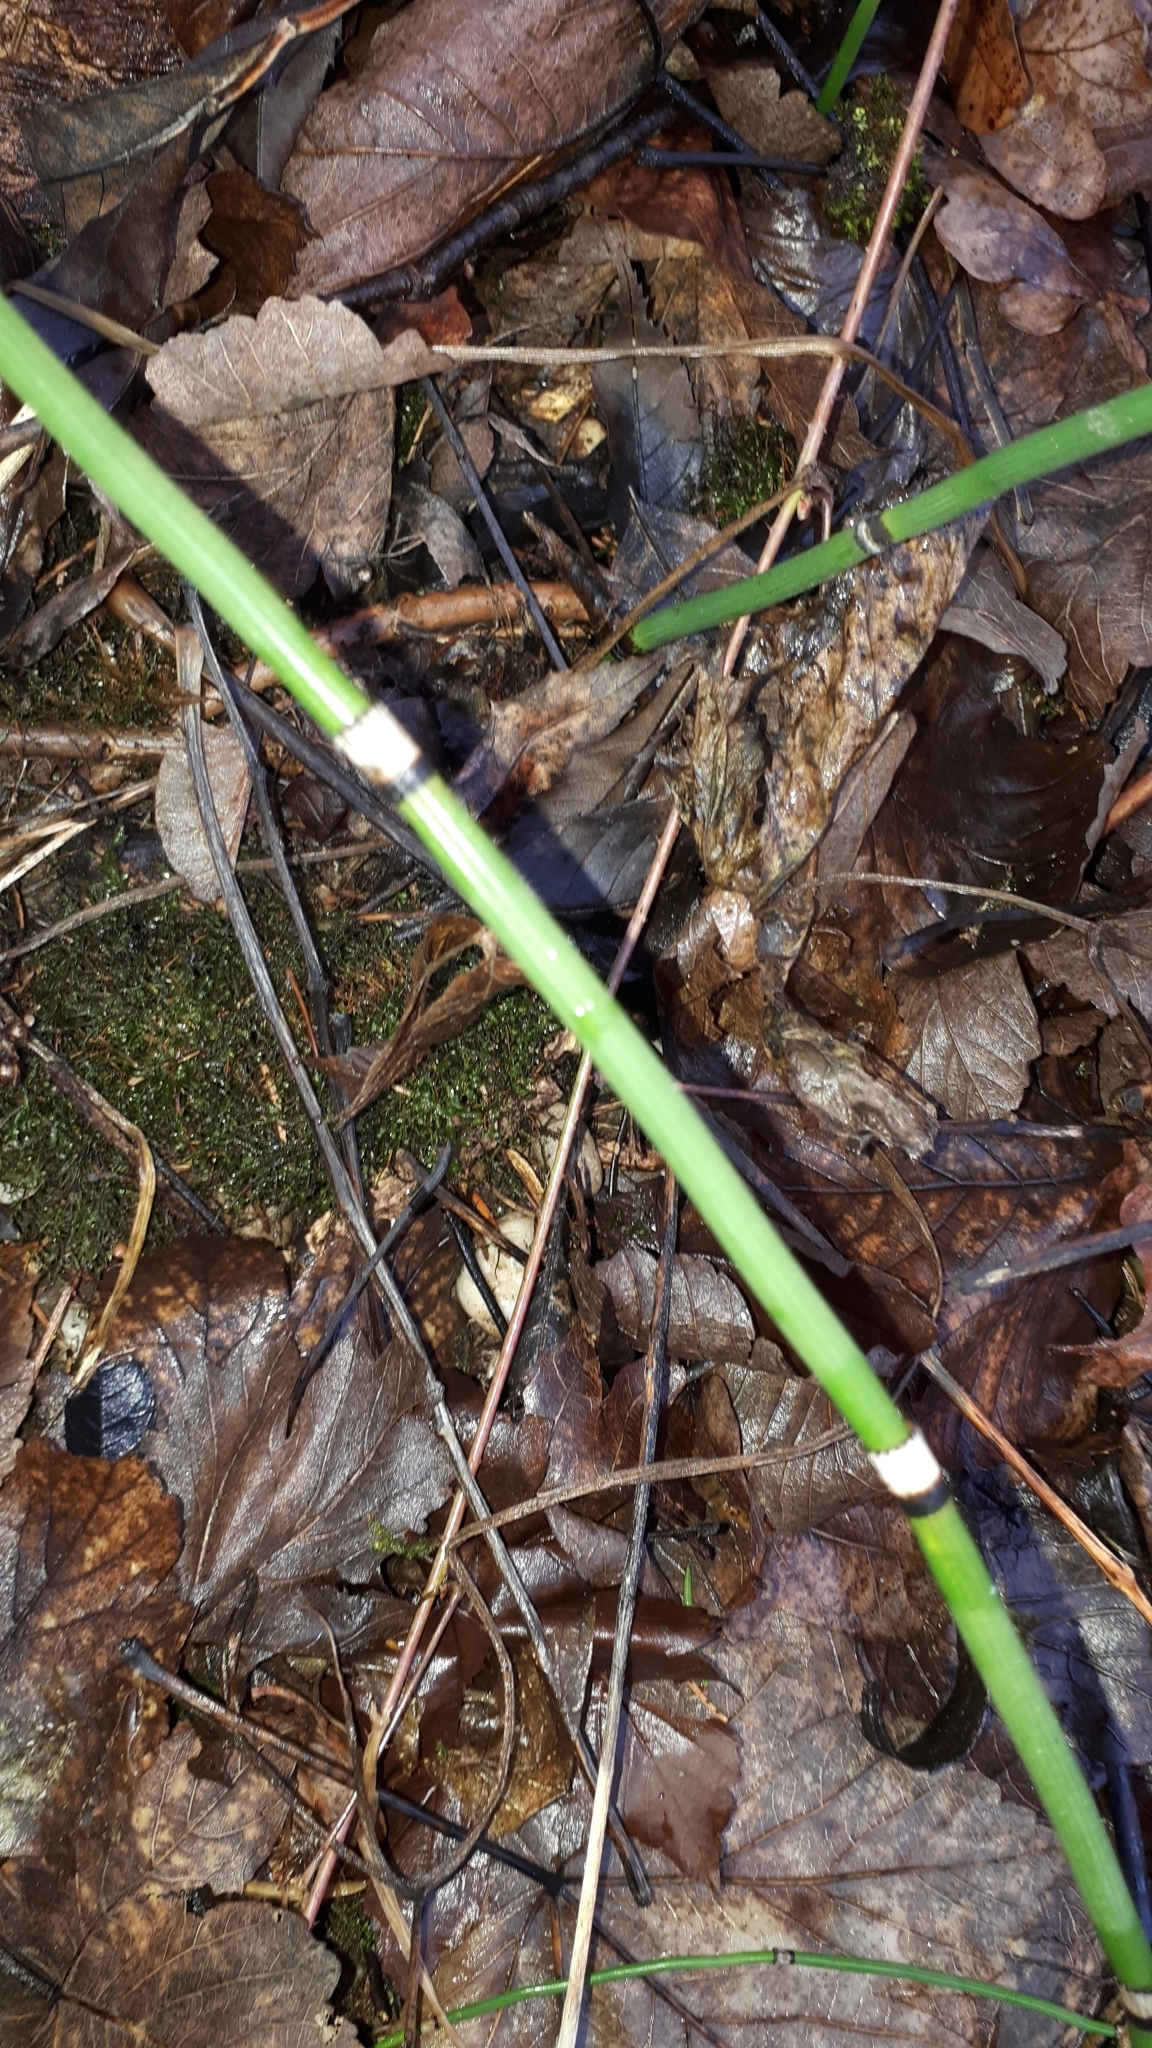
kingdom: Plantae
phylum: Tracheophyta
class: Polypodiopsida
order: Equisetales
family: Equisetaceae
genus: Equisetum
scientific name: Equisetum hyemale
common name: Rough horsetail
